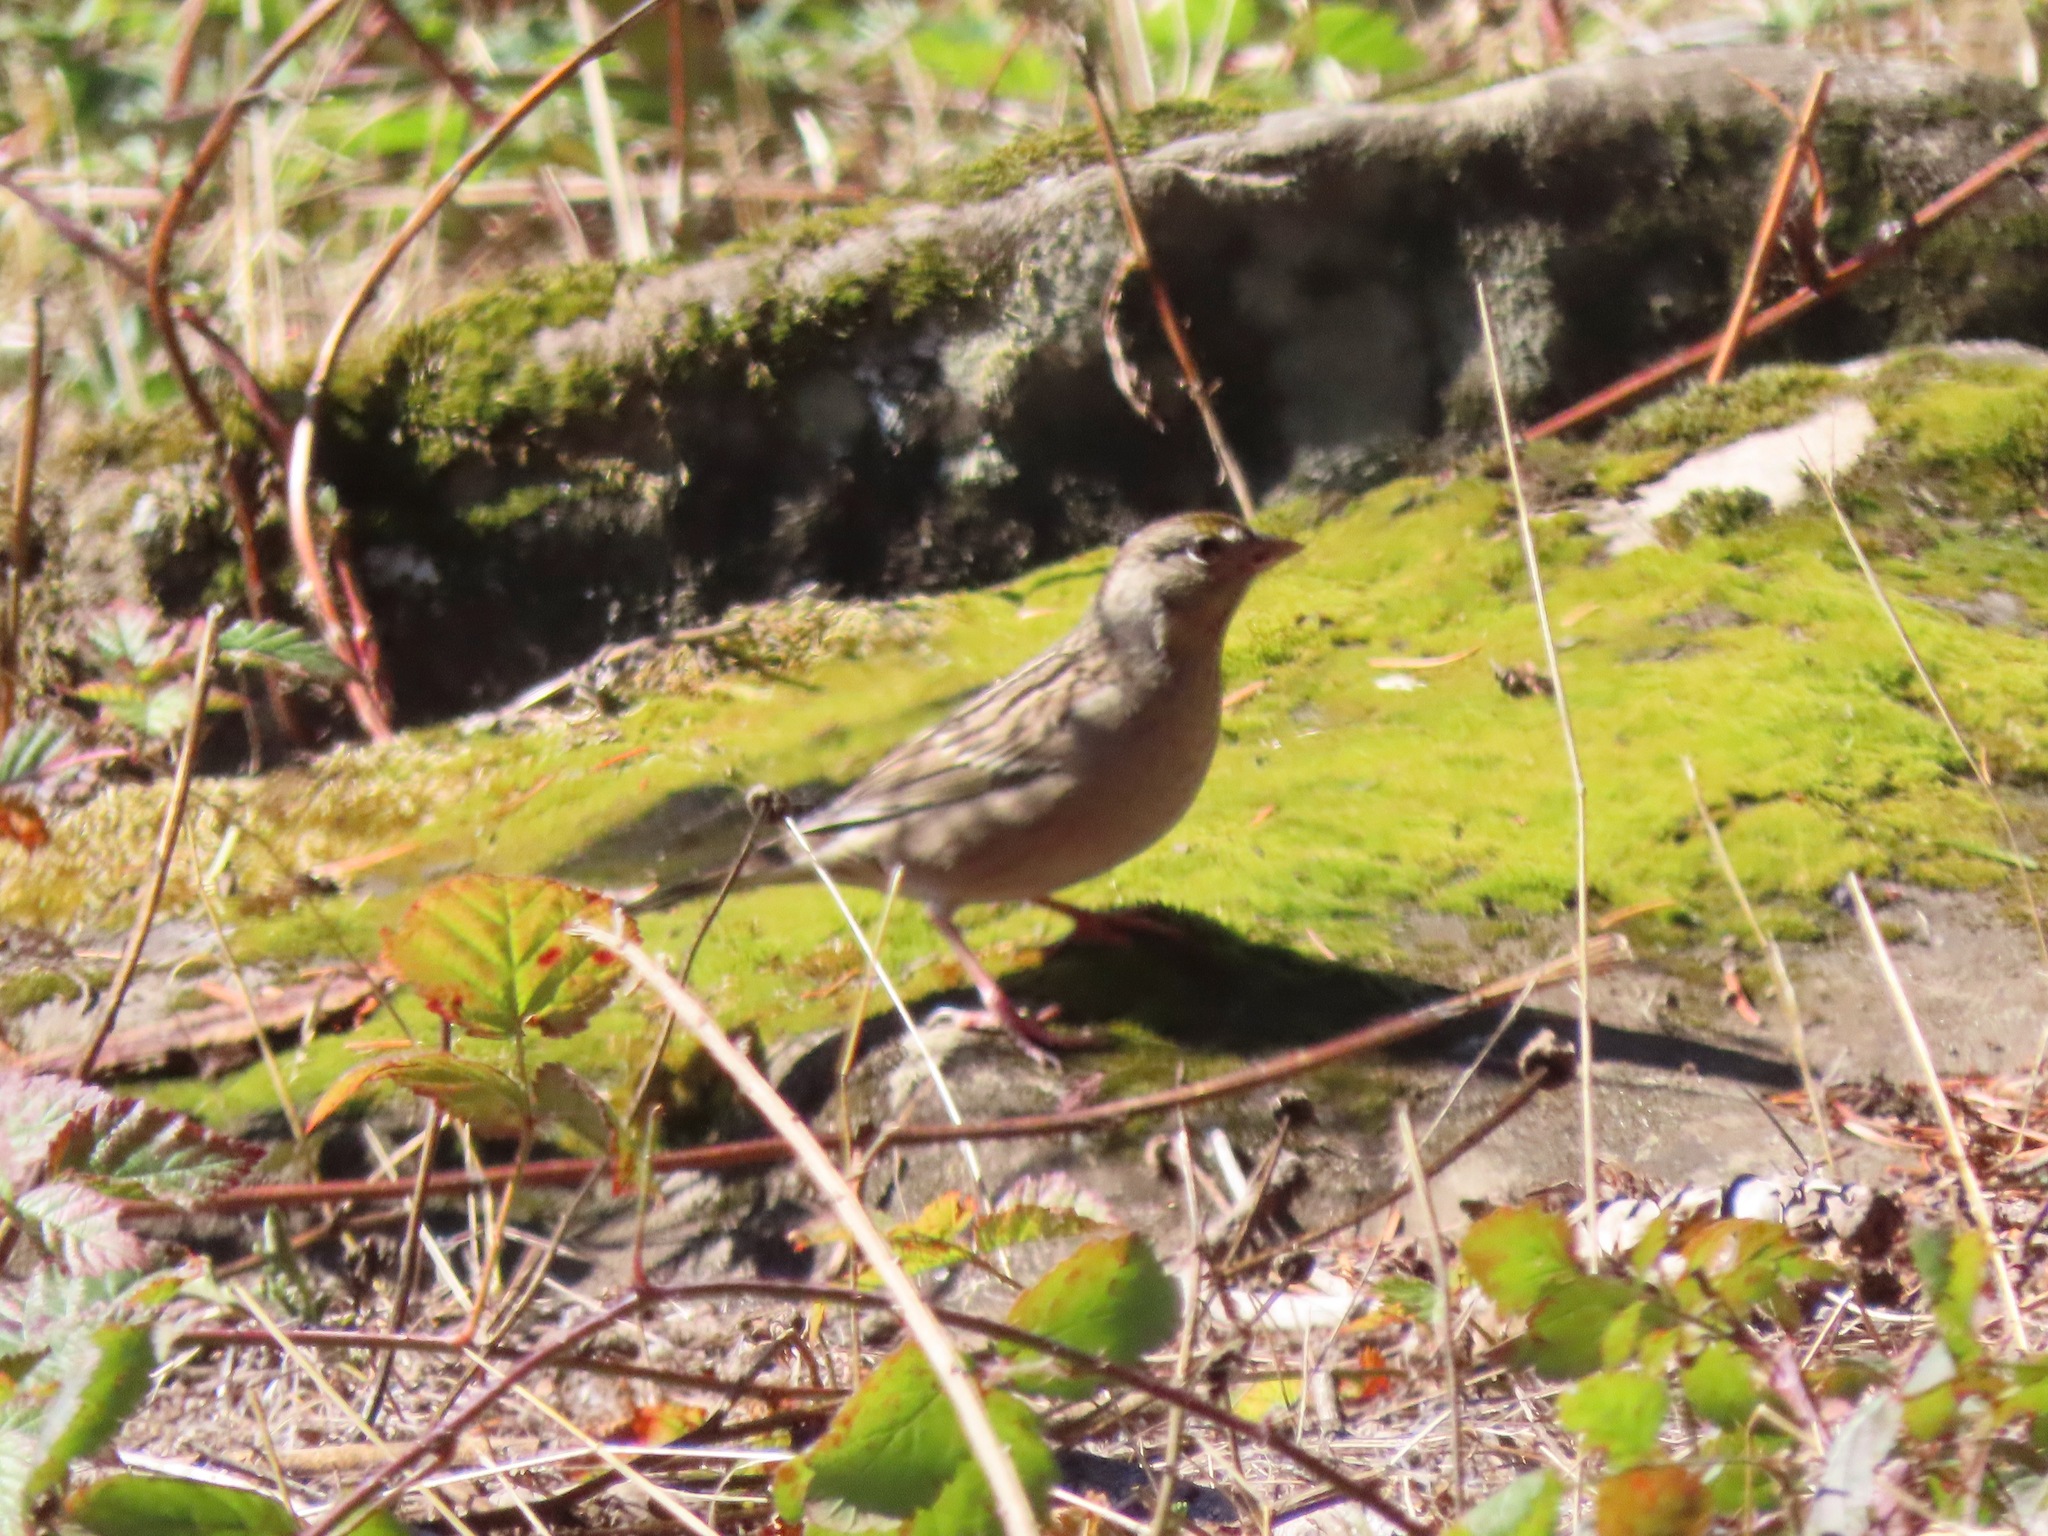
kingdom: Animalia
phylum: Chordata
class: Aves
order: Passeriformes
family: Passerellidae
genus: Zonotrichia
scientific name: Zonotrichia atricapilla
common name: Golden-crowned sparrow
